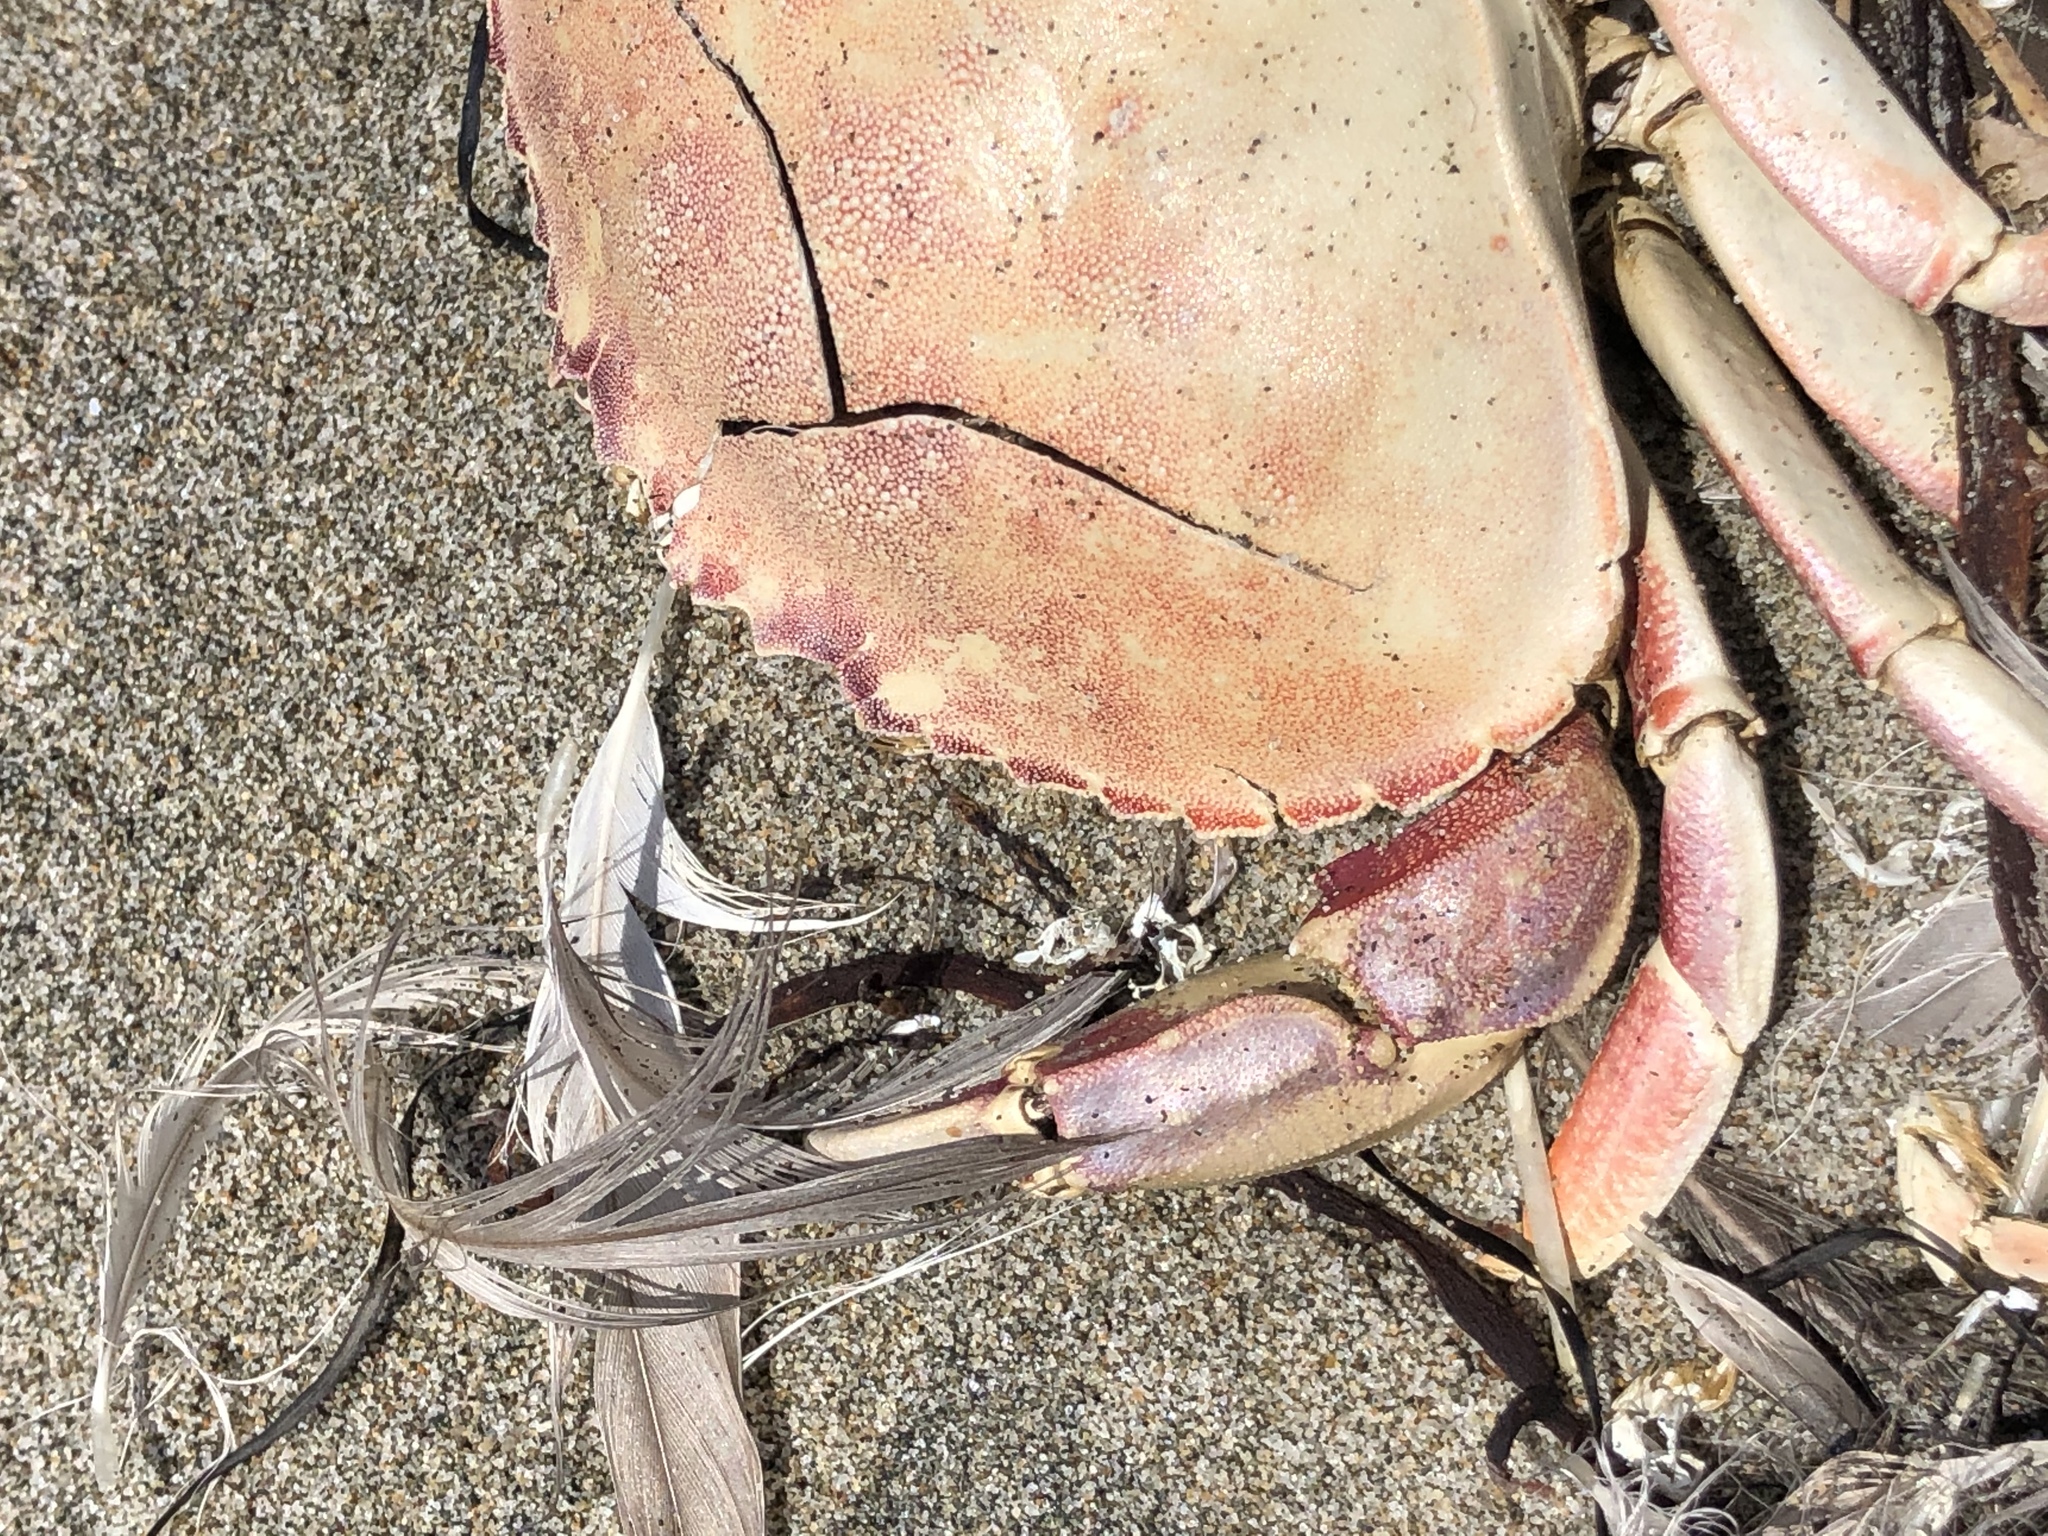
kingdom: Animalia
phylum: Arthropoda
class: Malacostraca
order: Decapoda
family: Cancridae
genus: Metacarcinus
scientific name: Metacarcinus gracilis
